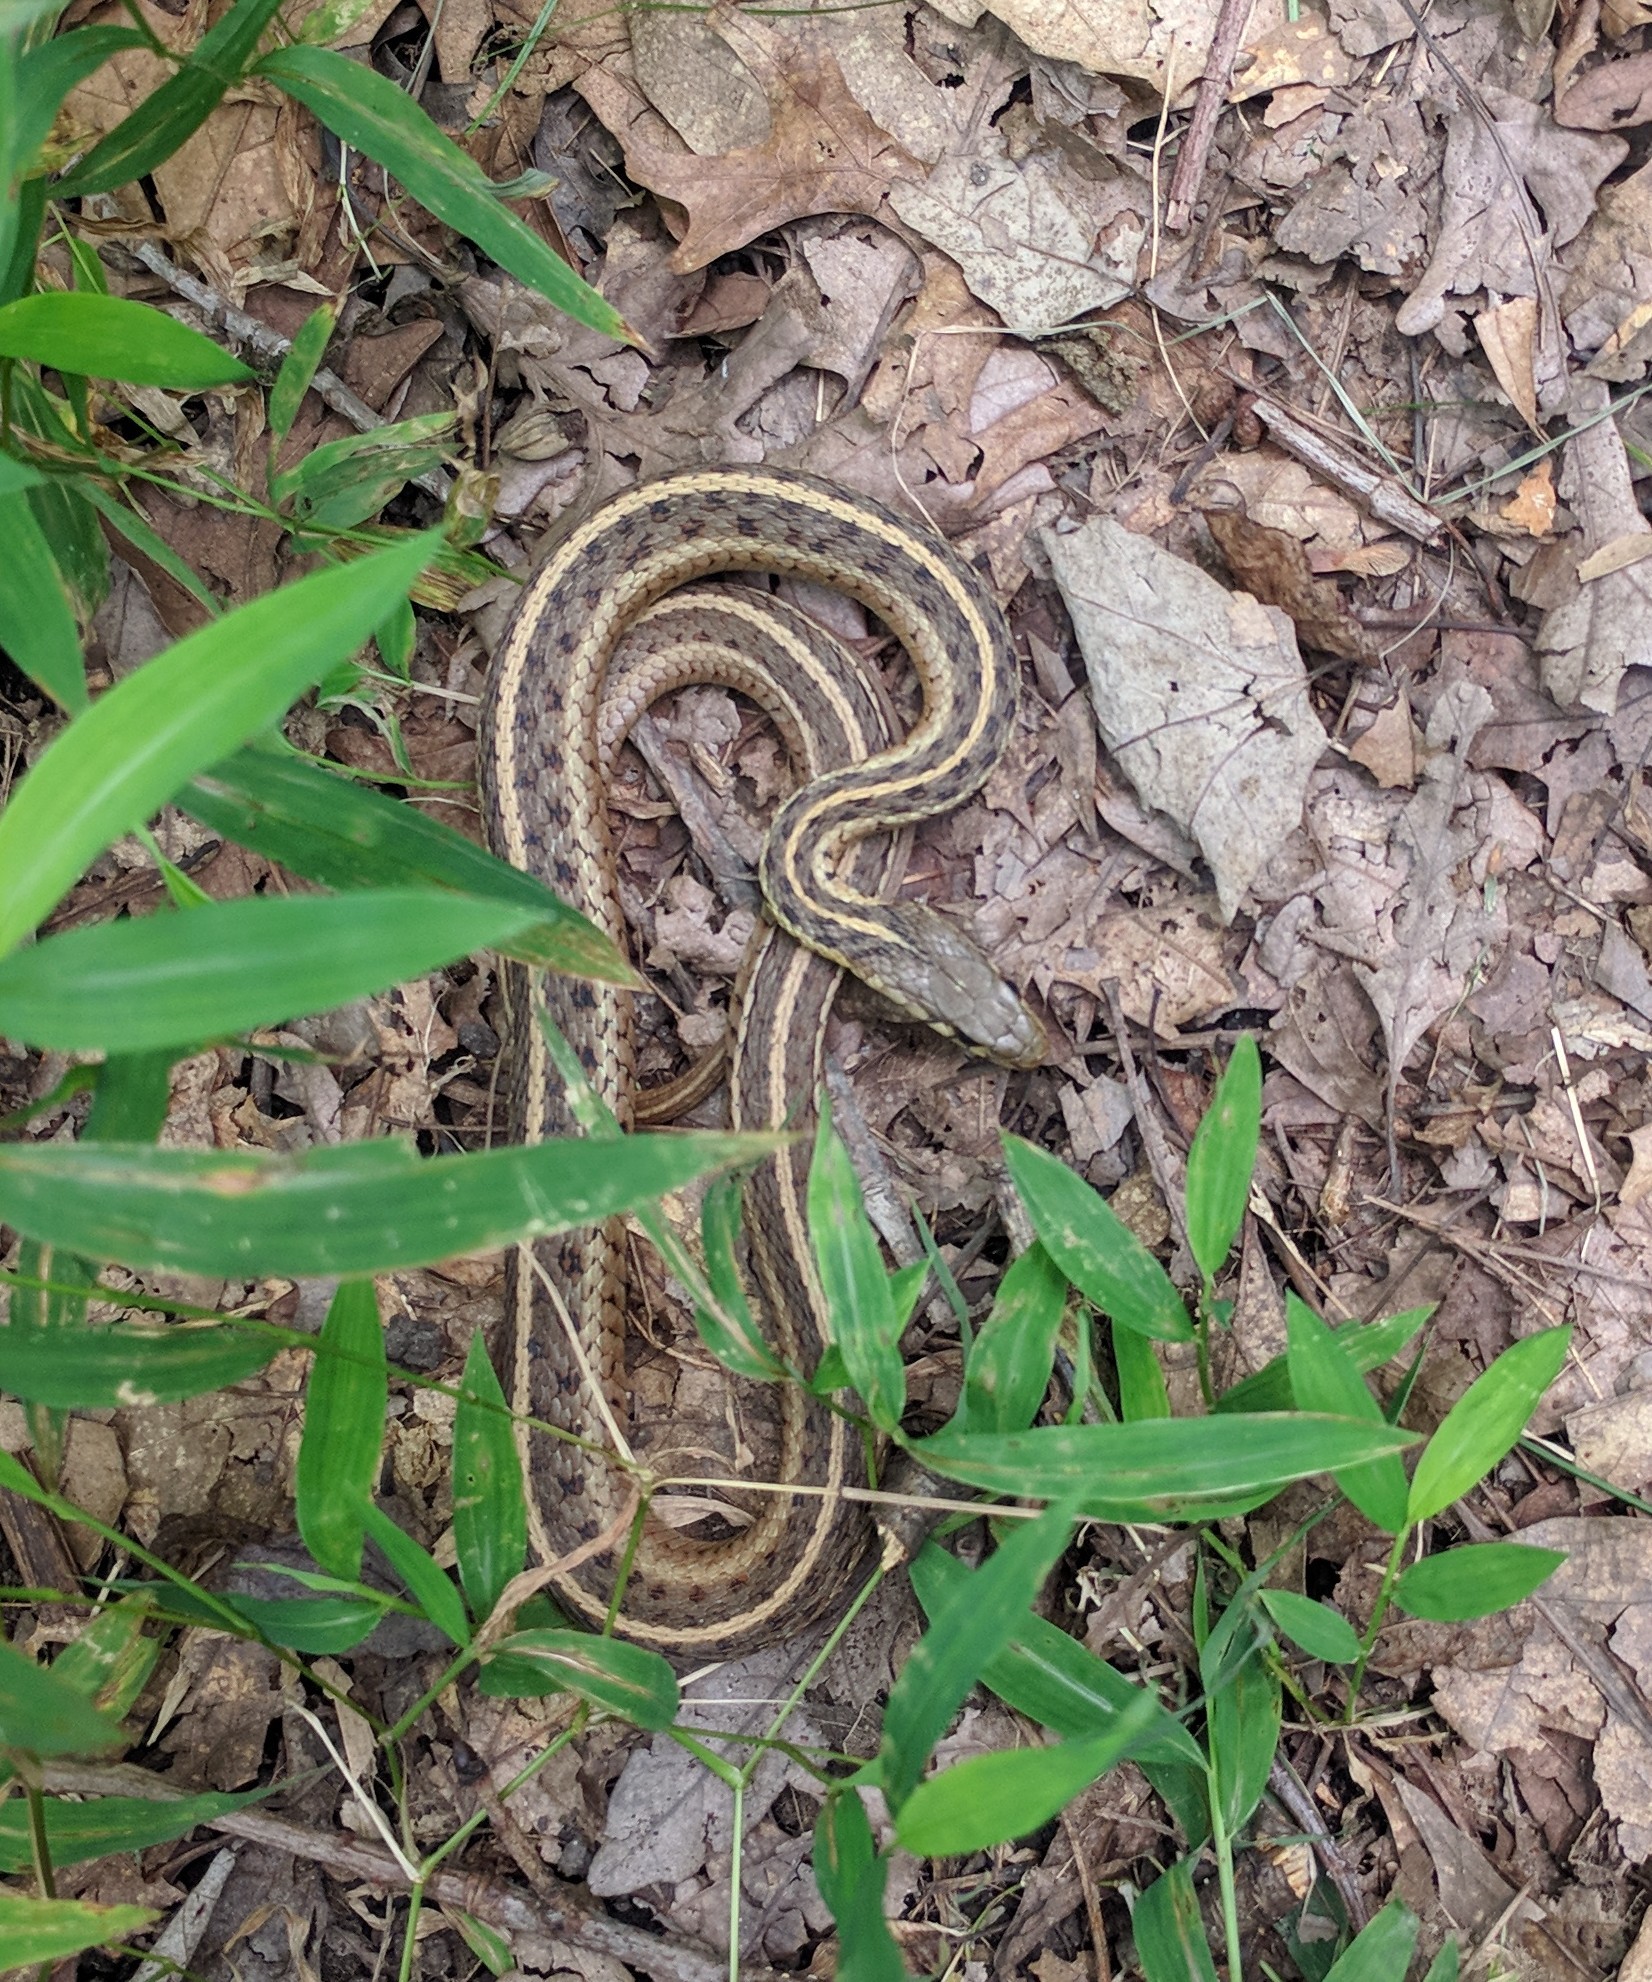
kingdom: Animalia
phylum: Chordata
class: Squamata
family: Colubridae
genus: Thamnophis
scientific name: Thamnophis sirtalis
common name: Common garter snake
